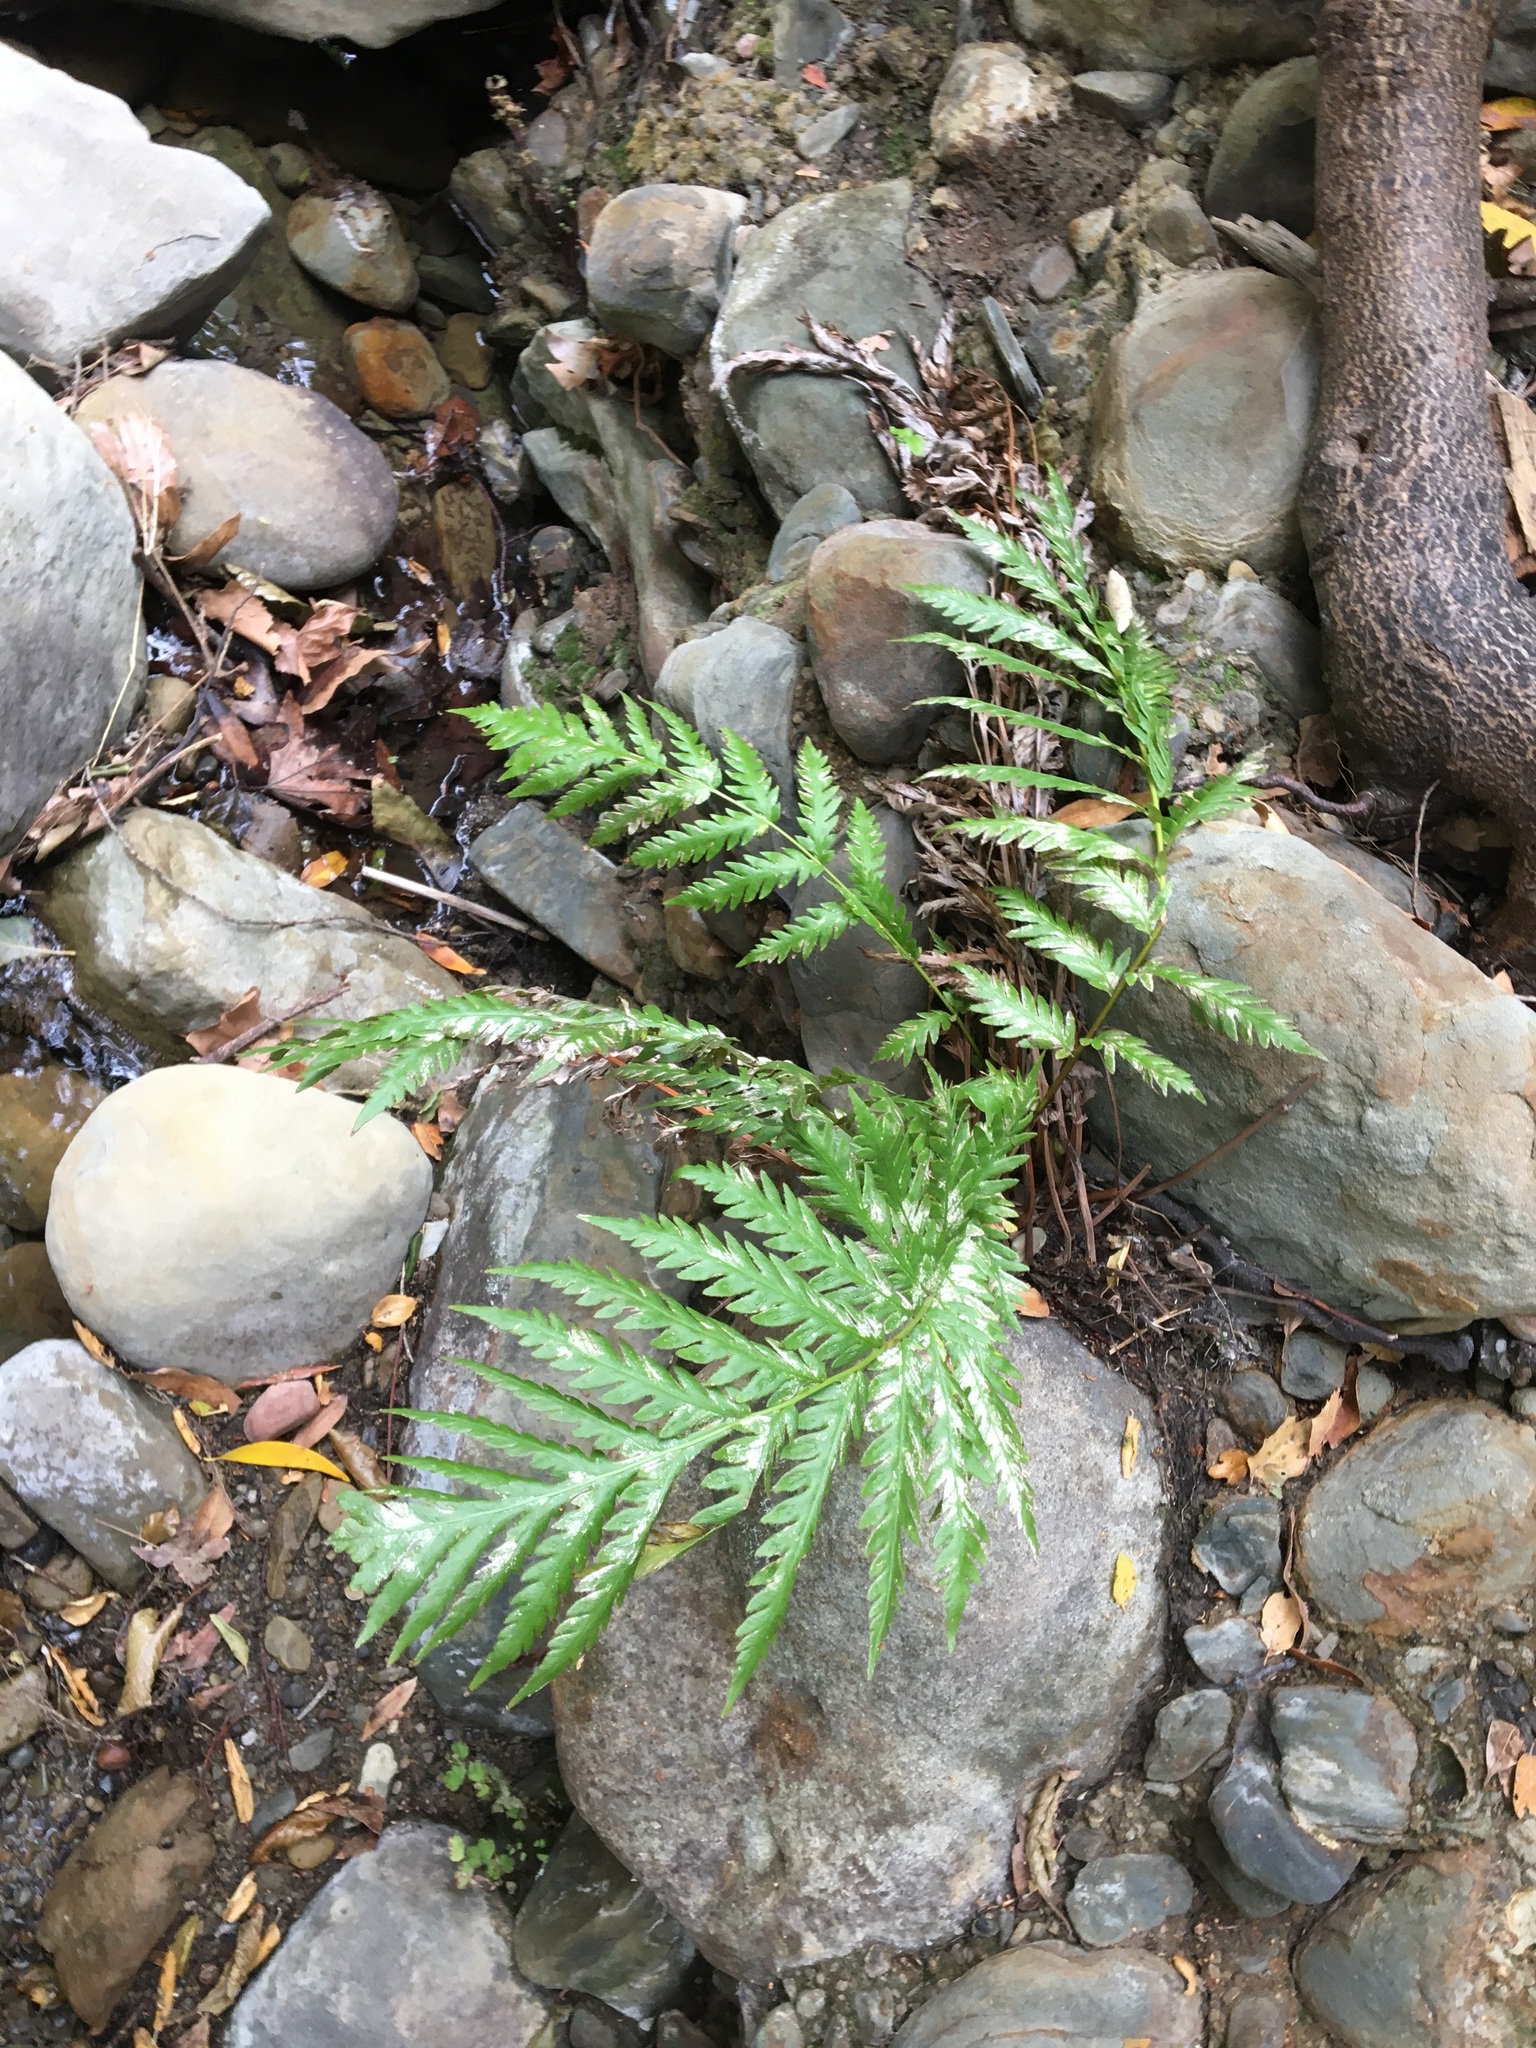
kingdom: Plantae
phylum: Tracheophyta
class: Polypodiopsida
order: Polypodiales
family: Blechnaceae
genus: Woodwardia
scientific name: Woodwardia fimbriata
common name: Giant chain fern
